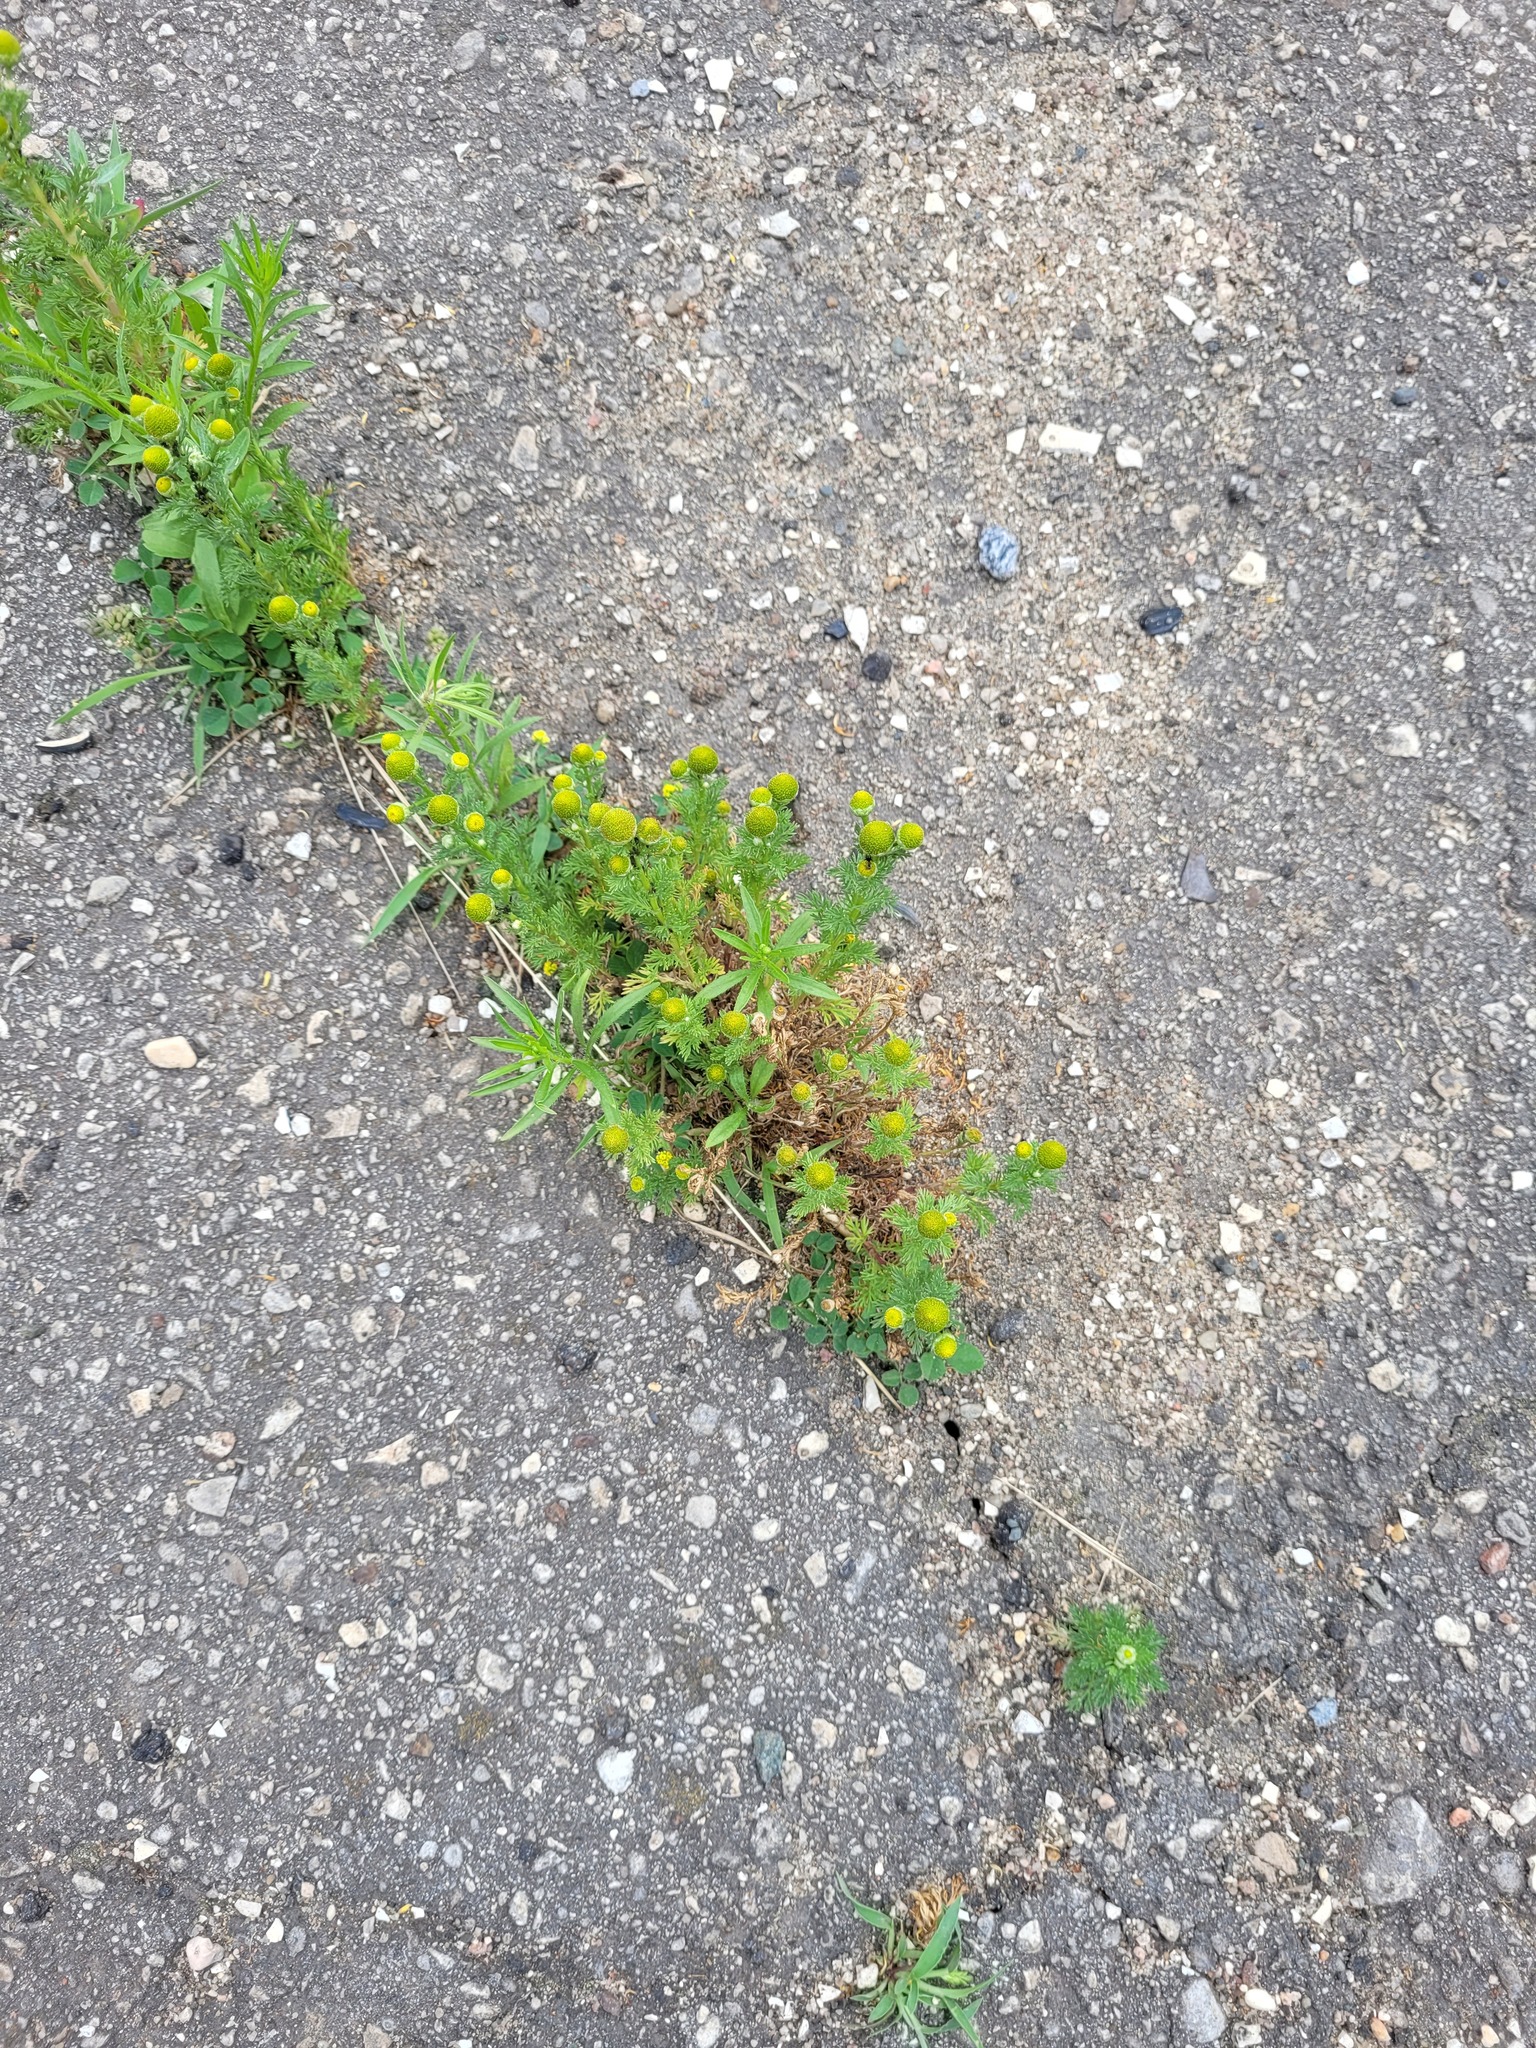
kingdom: Plantae
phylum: Tracheophyta
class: Magnoliopsida
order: Asterales
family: Asteraceae
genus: Matricaria
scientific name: Matricaria discoidea
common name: Disc mayweed
